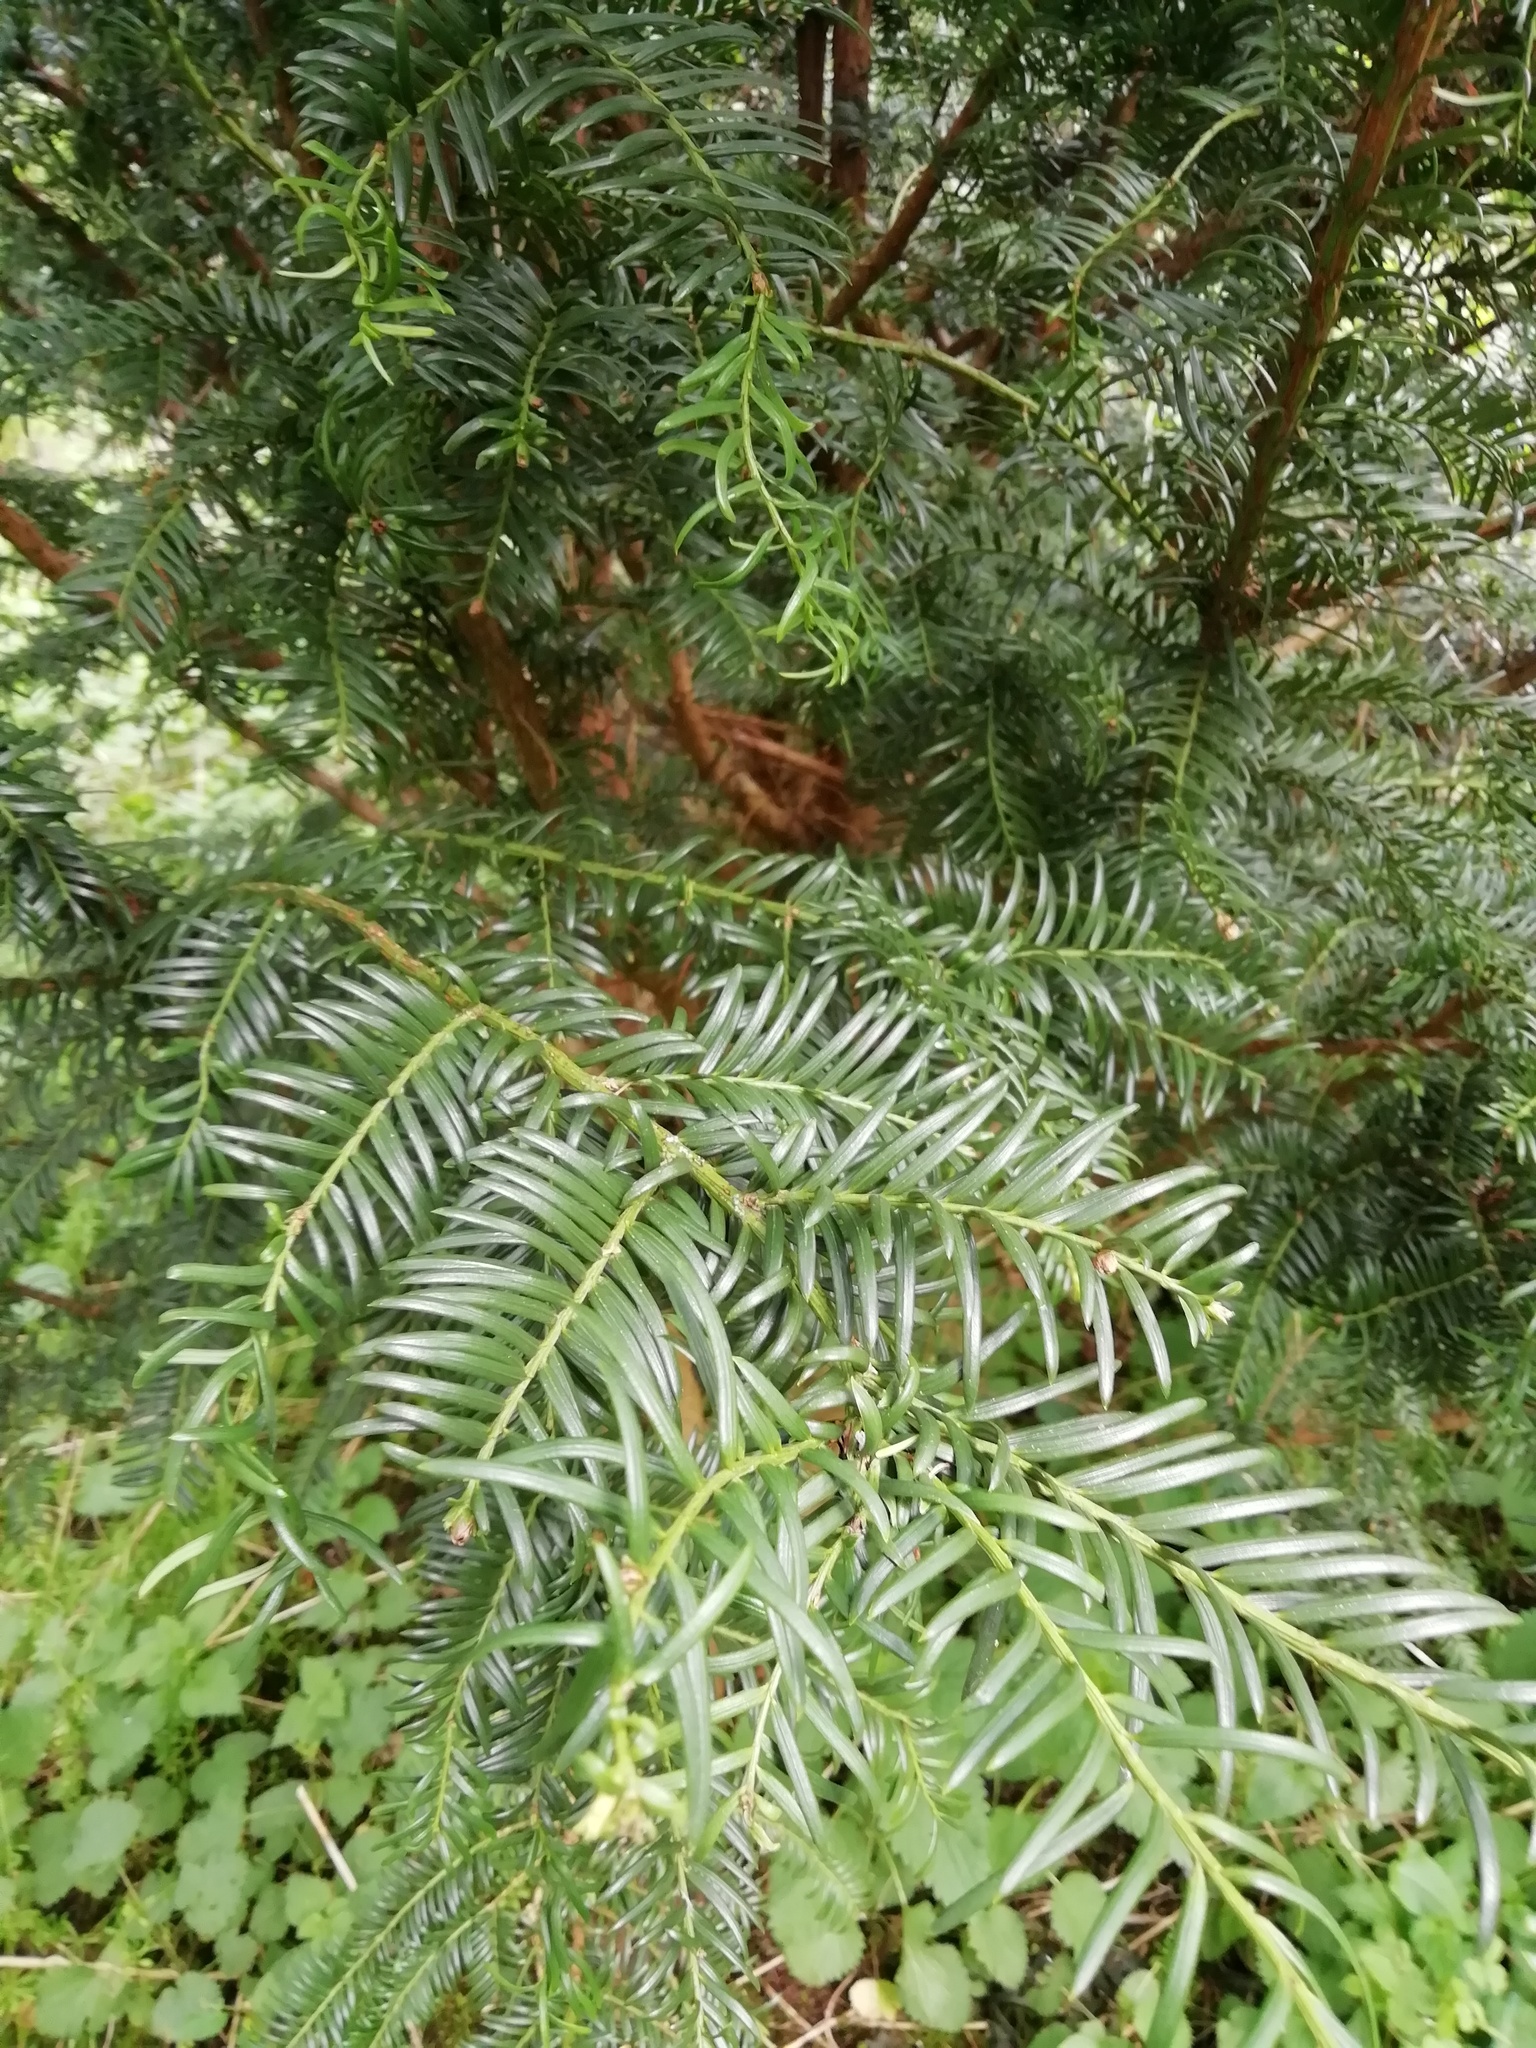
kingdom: Plantae
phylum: Tracheophyta
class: Pinopsida
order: Pinales
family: Taxaceae
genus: Taxus
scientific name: Taxus baccata
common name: Yew
